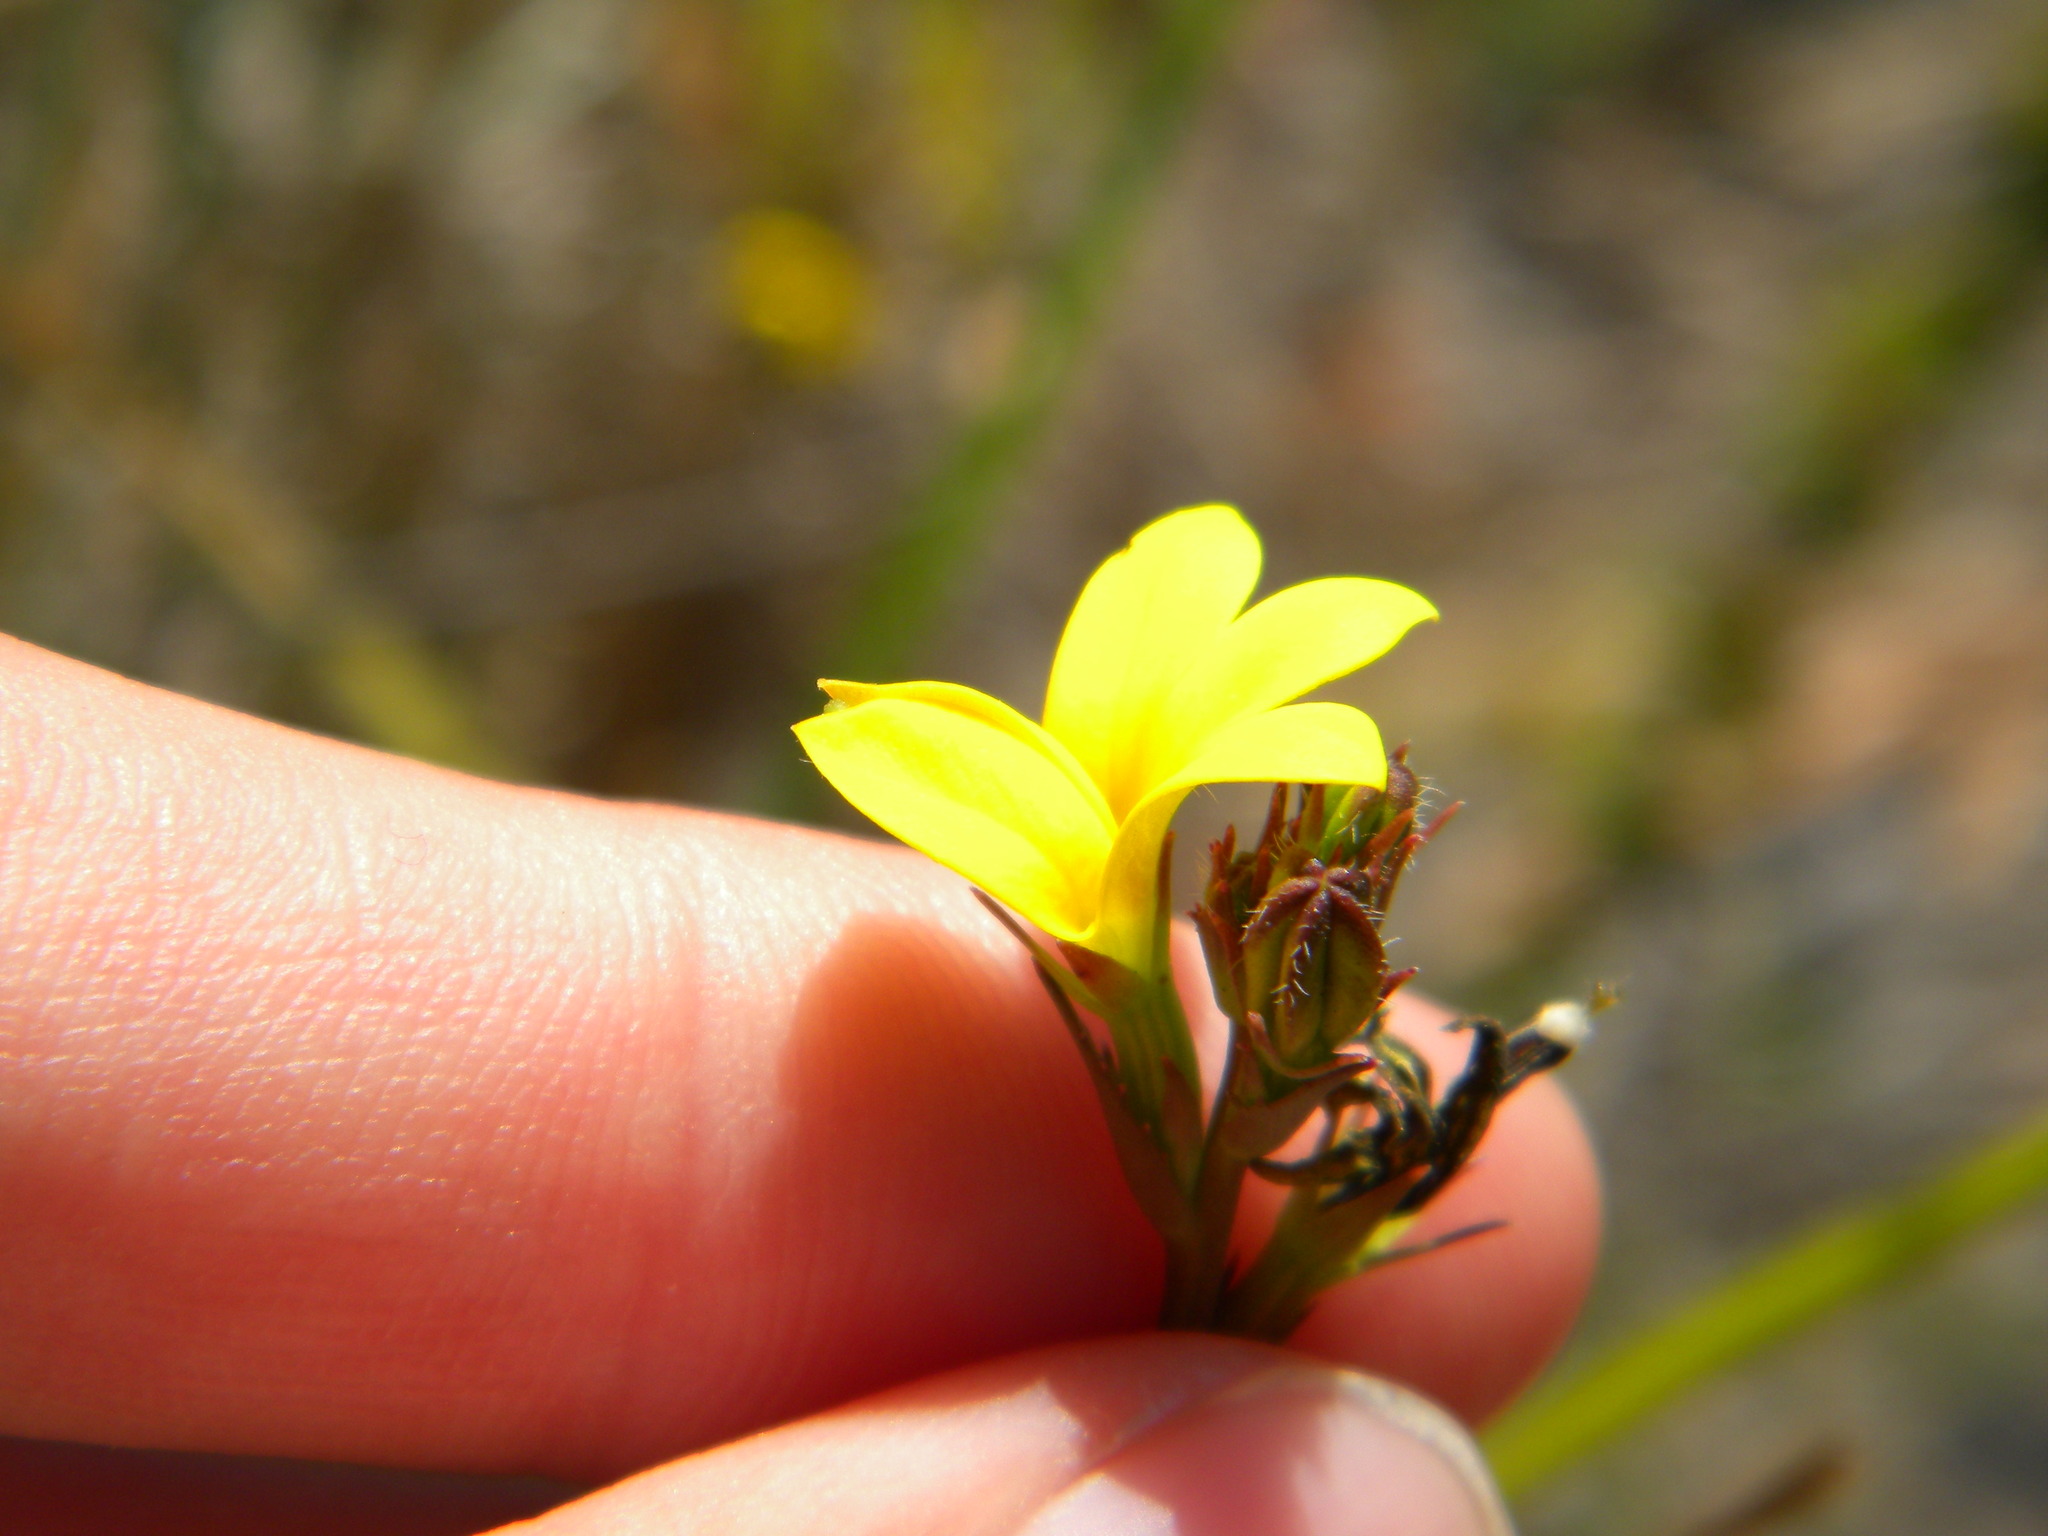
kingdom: Plantae
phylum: Tracheophyta
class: Magnoliopsida
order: Asterales
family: Campanulaceae
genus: Monopsis
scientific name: Monopsis lutea
